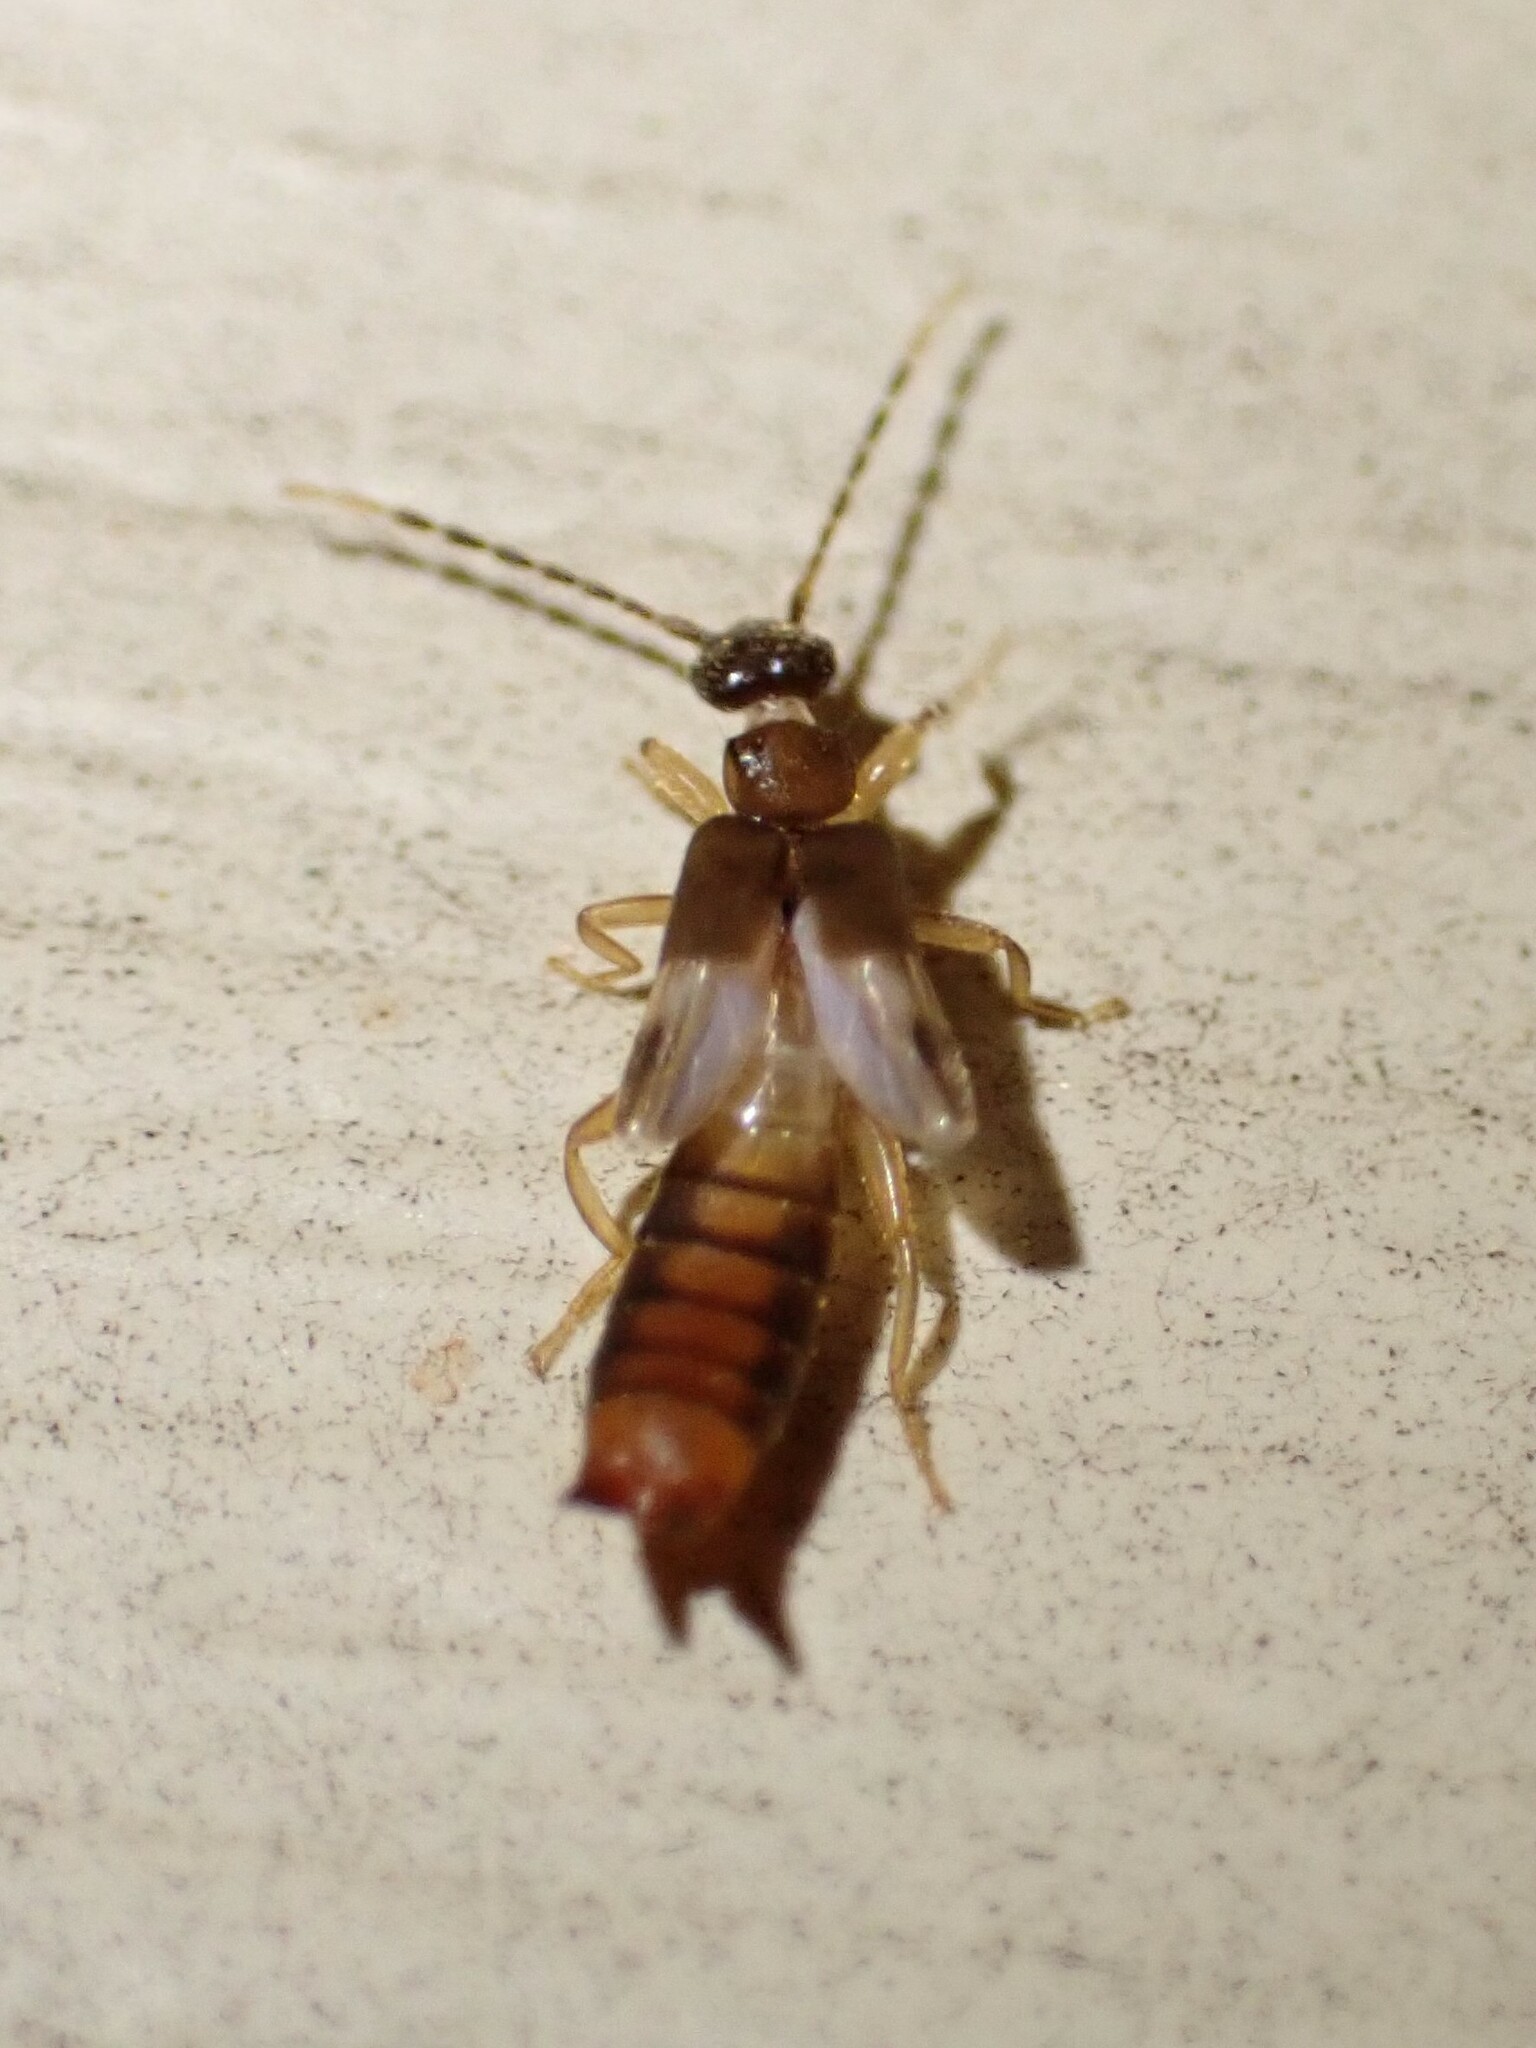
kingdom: Animalia
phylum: Arthropoda
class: Insecta
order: Dermaptera
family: Spongiphoridae
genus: Labia
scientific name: Labia minor
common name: Lesser earwig
